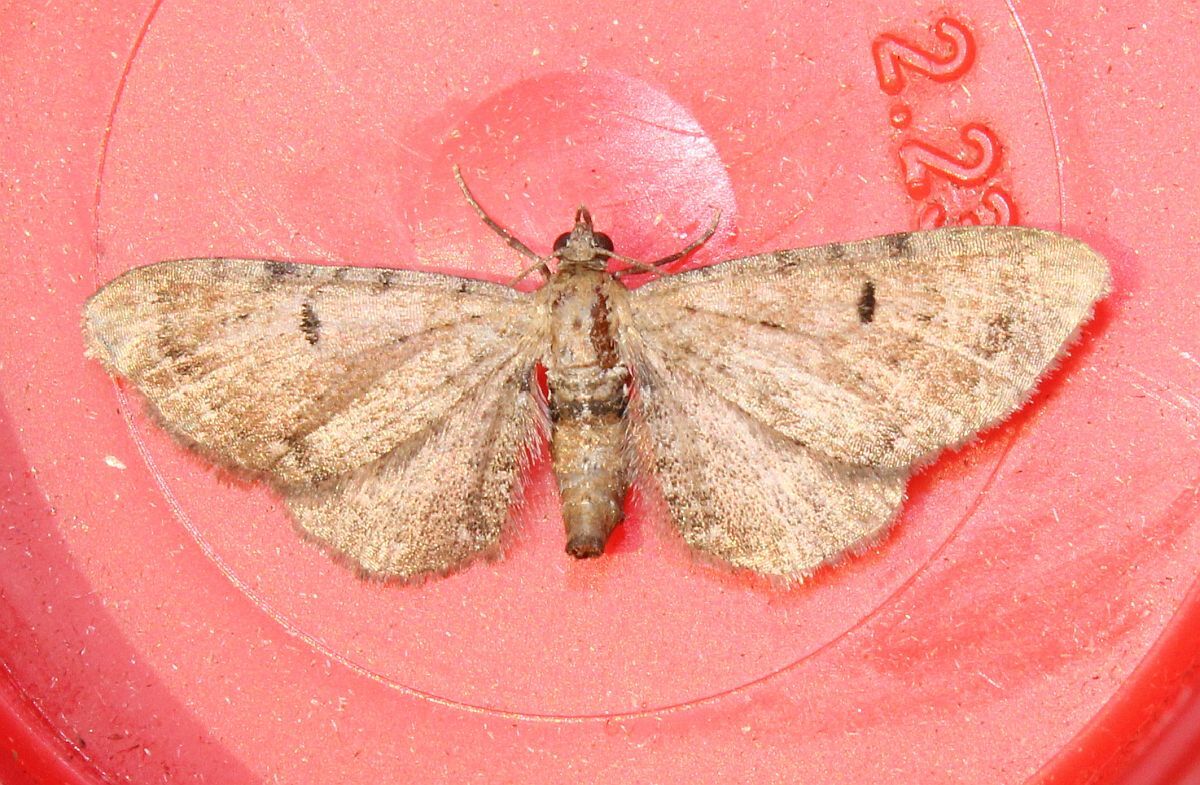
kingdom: Animalia
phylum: Arthropoda
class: Insecta
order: Lepidoptera
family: Geometridae
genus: Eupithecia
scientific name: Eupithecia absinthiata
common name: Wormwood pug
